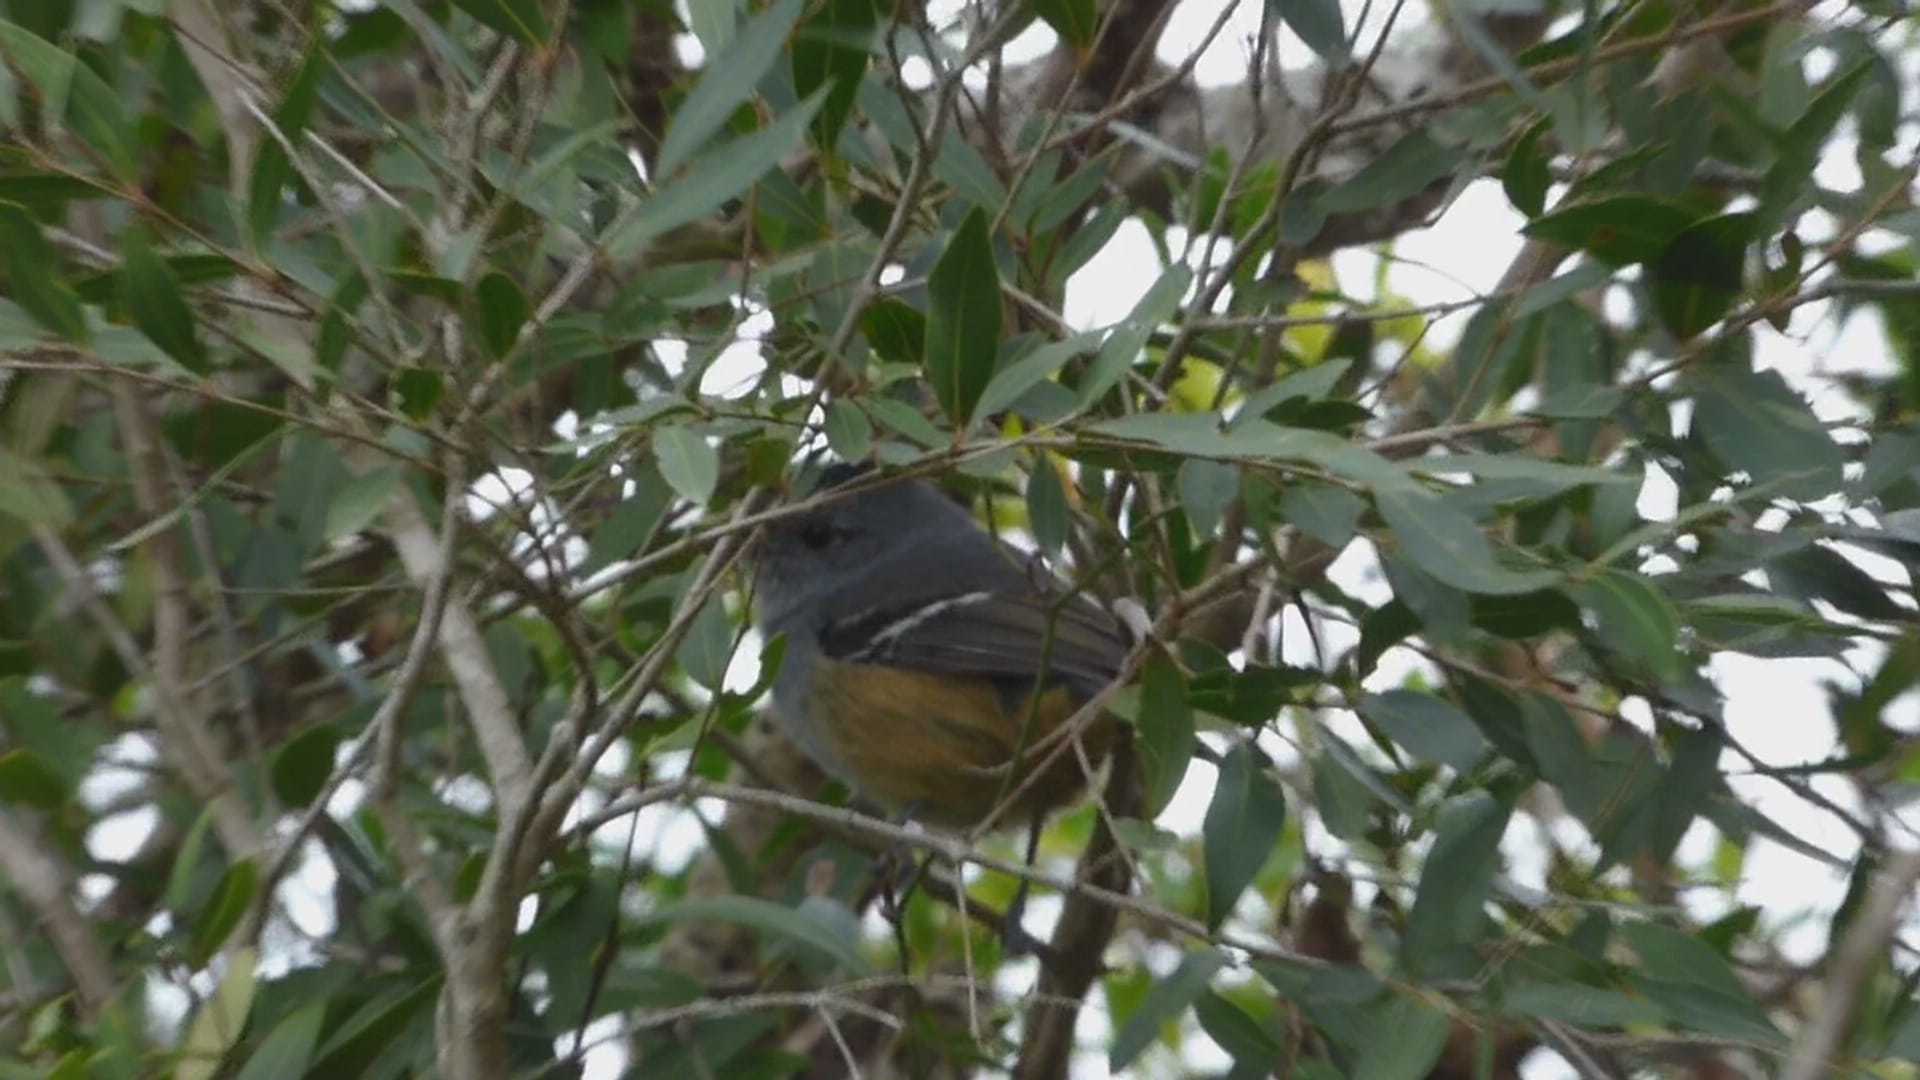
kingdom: Animalia
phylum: Chordata
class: Aves
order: Passeriformes
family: Thamnophilidae
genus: Thamnophilus
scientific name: Thamnophilus caerulescens
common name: Variable antshrike
